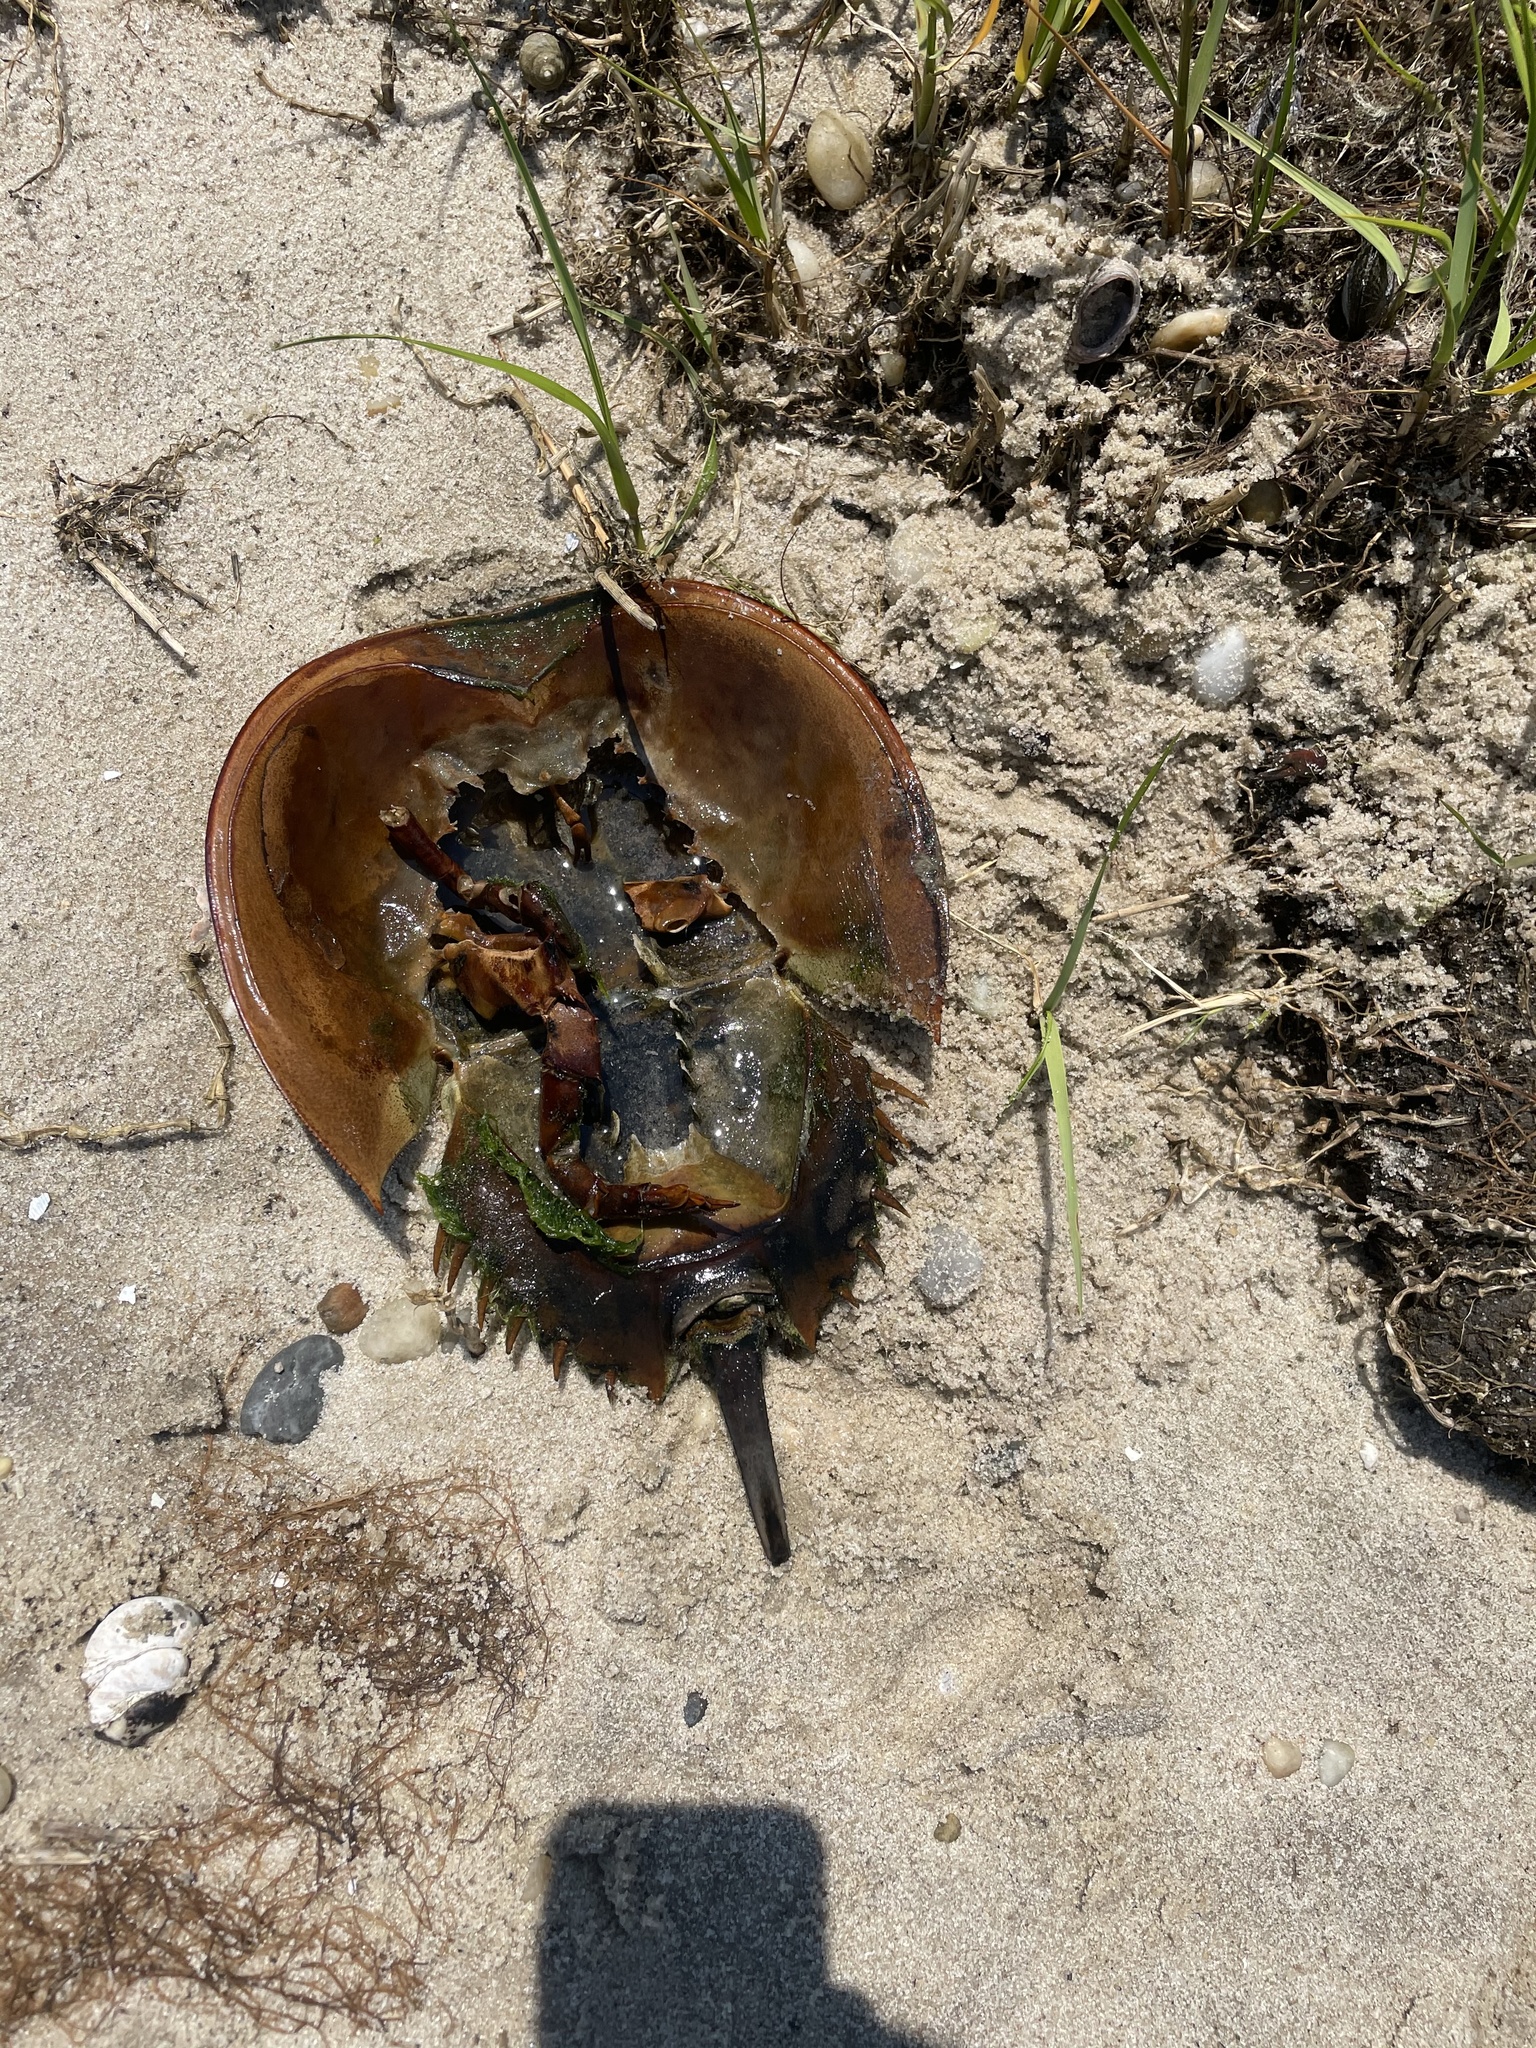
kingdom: Animalia
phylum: Arthropoda
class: Merostomata
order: Xiphosurida
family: Limulidae
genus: Limulus
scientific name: Limulus polyphemus
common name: Horseshoe crab
